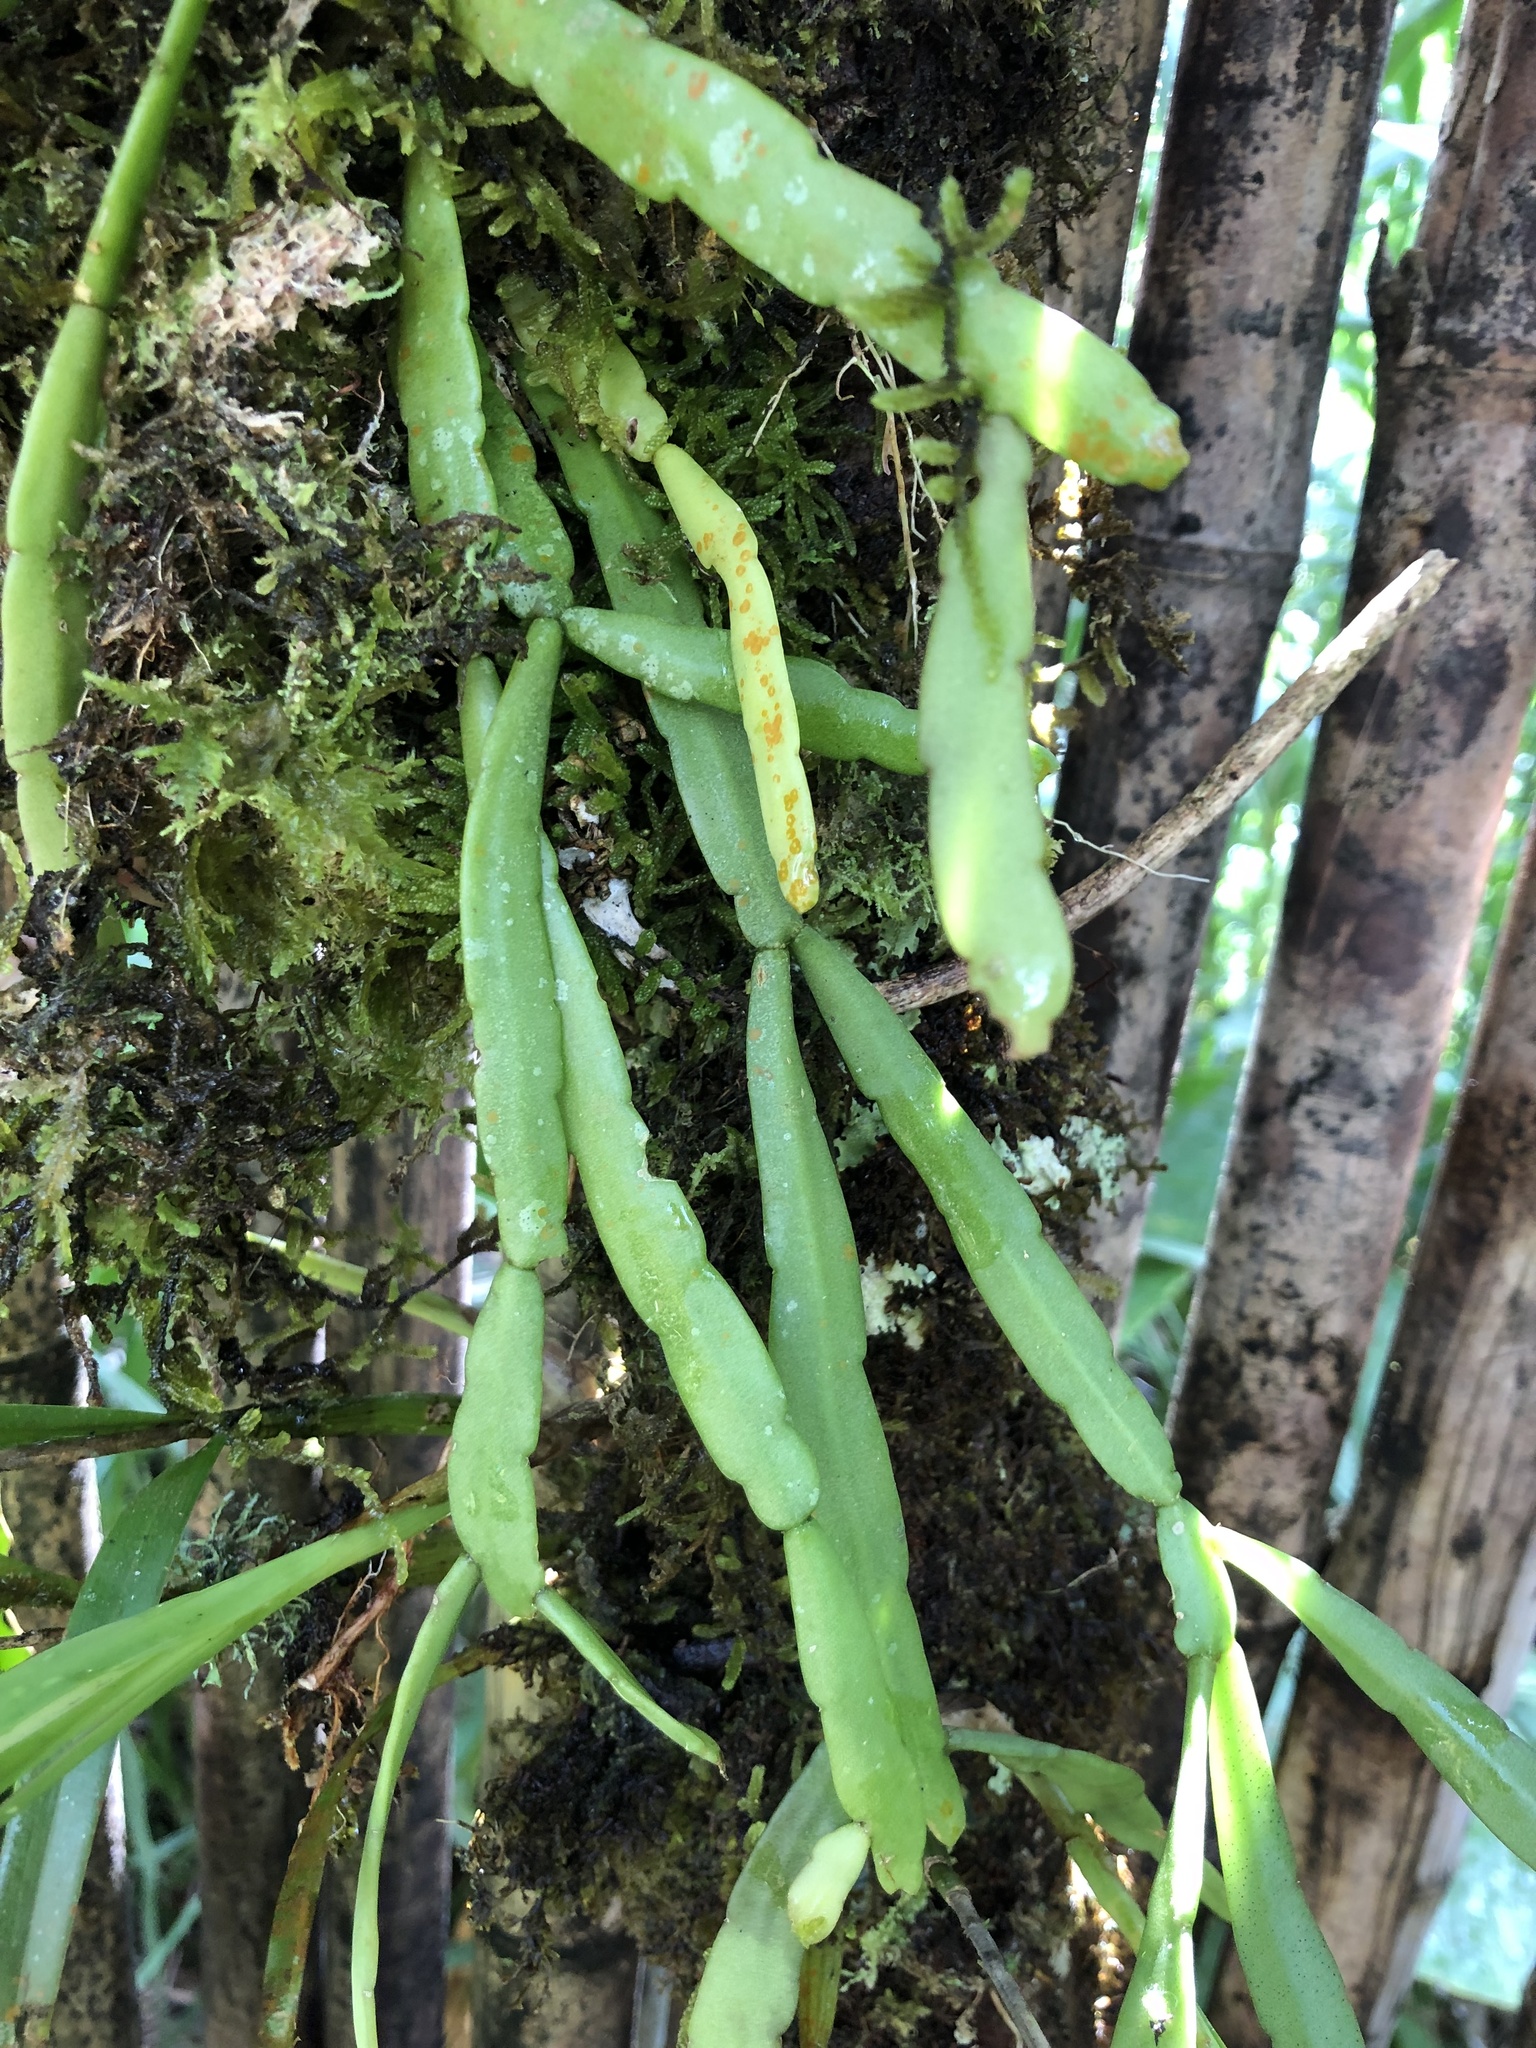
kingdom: Plantae
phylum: Tracheophyta
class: Magnoliopsida
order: Caryophyllales
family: Cactaceae
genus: Rhipsalis
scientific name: Rhipsalis micrantha
